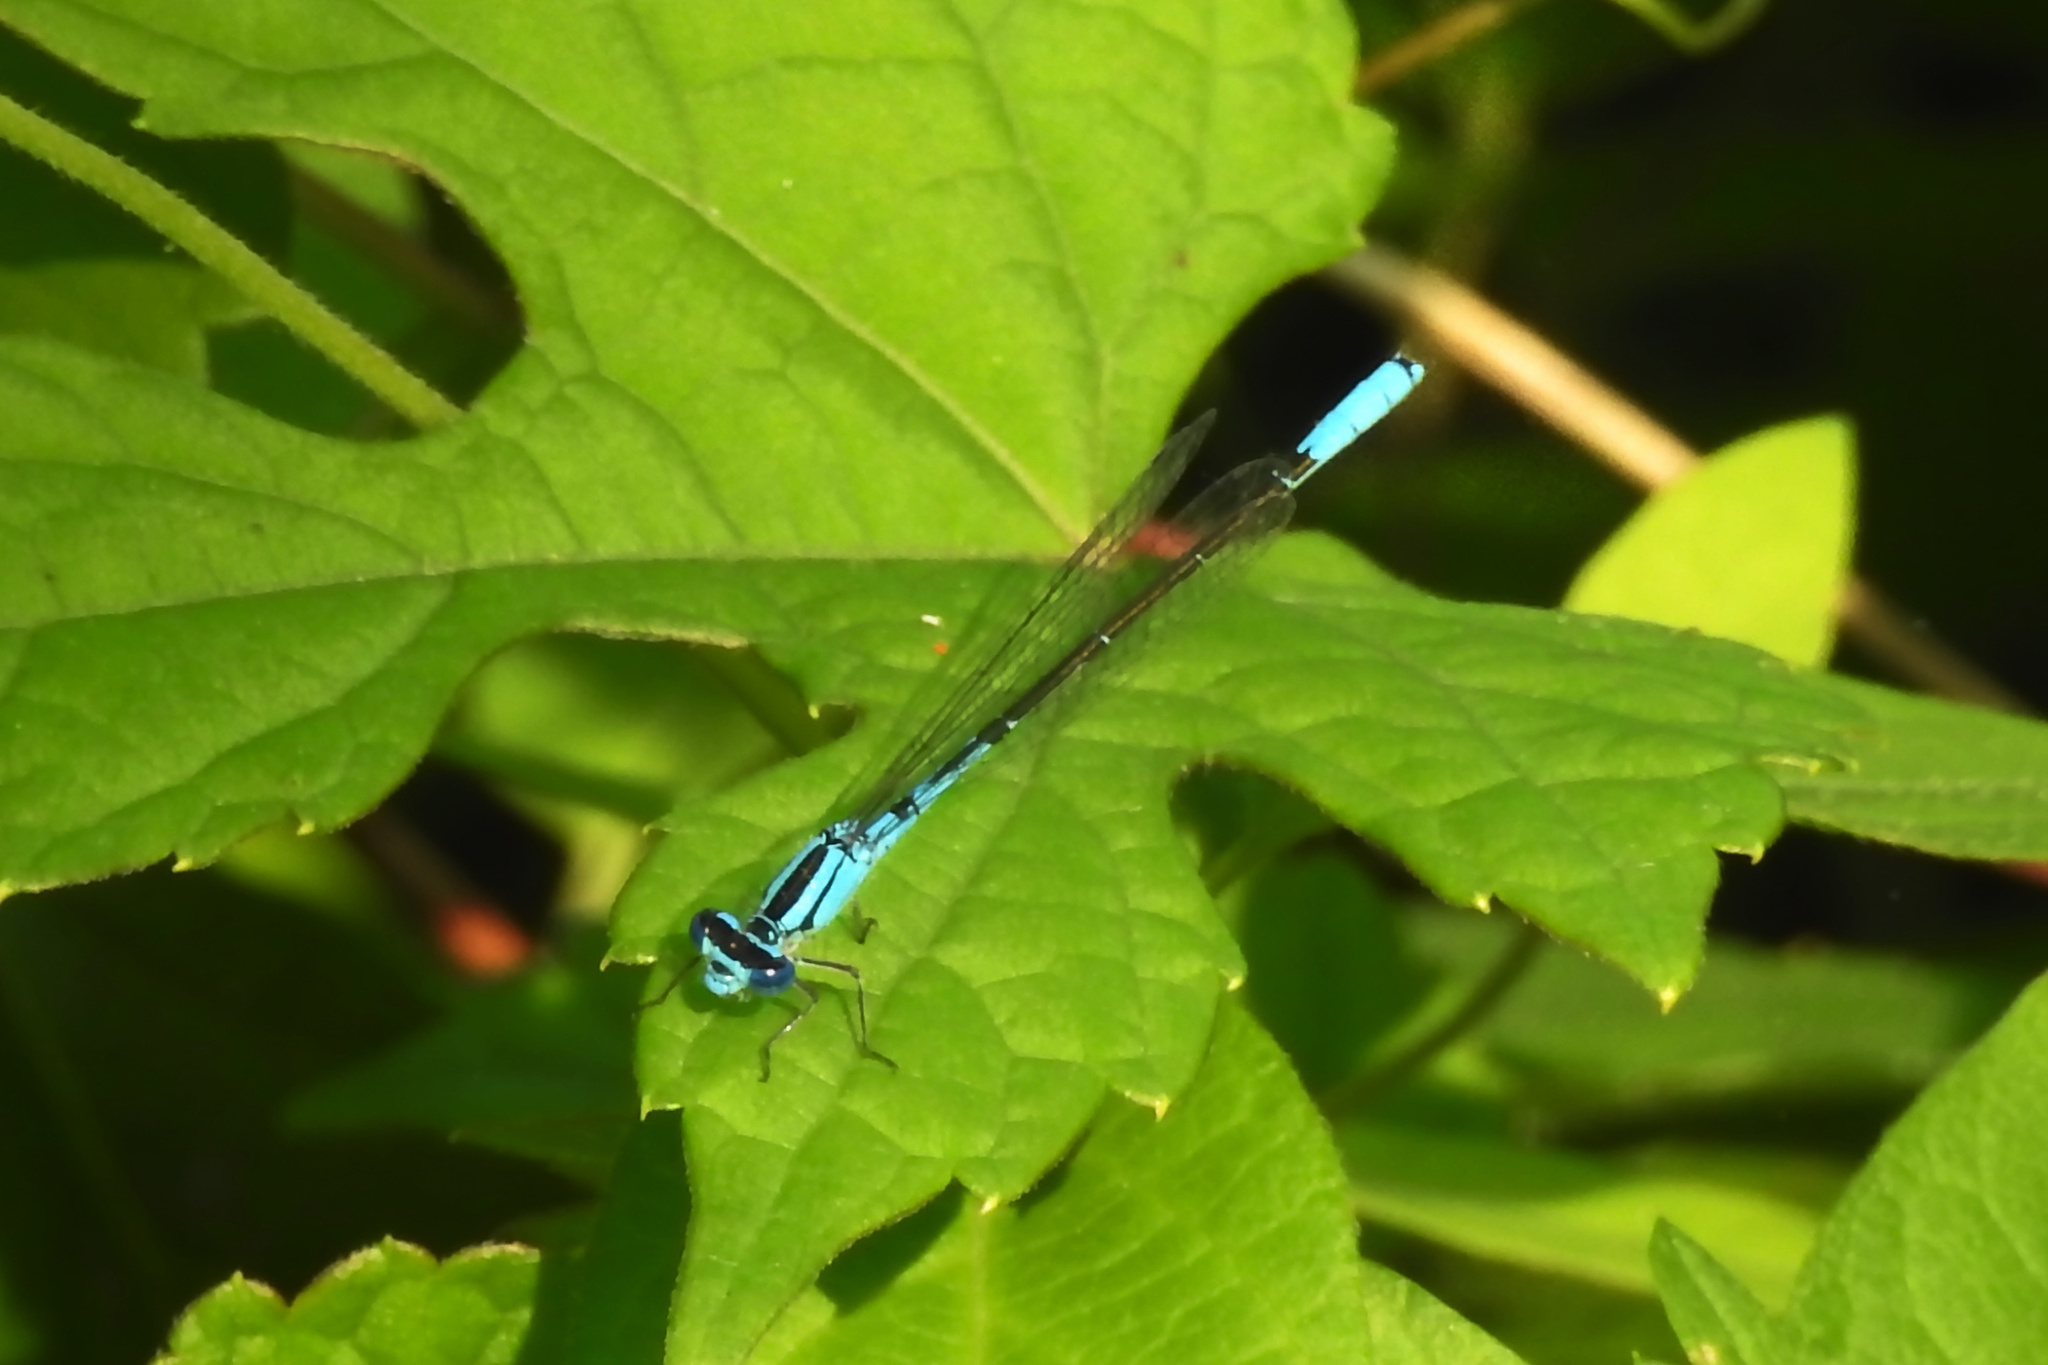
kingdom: Animalia
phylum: Arthropoda
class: Insecta
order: Odonata
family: Coenagrionidae
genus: Enallagma
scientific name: Enallagma aspersum
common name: Azure bluet
